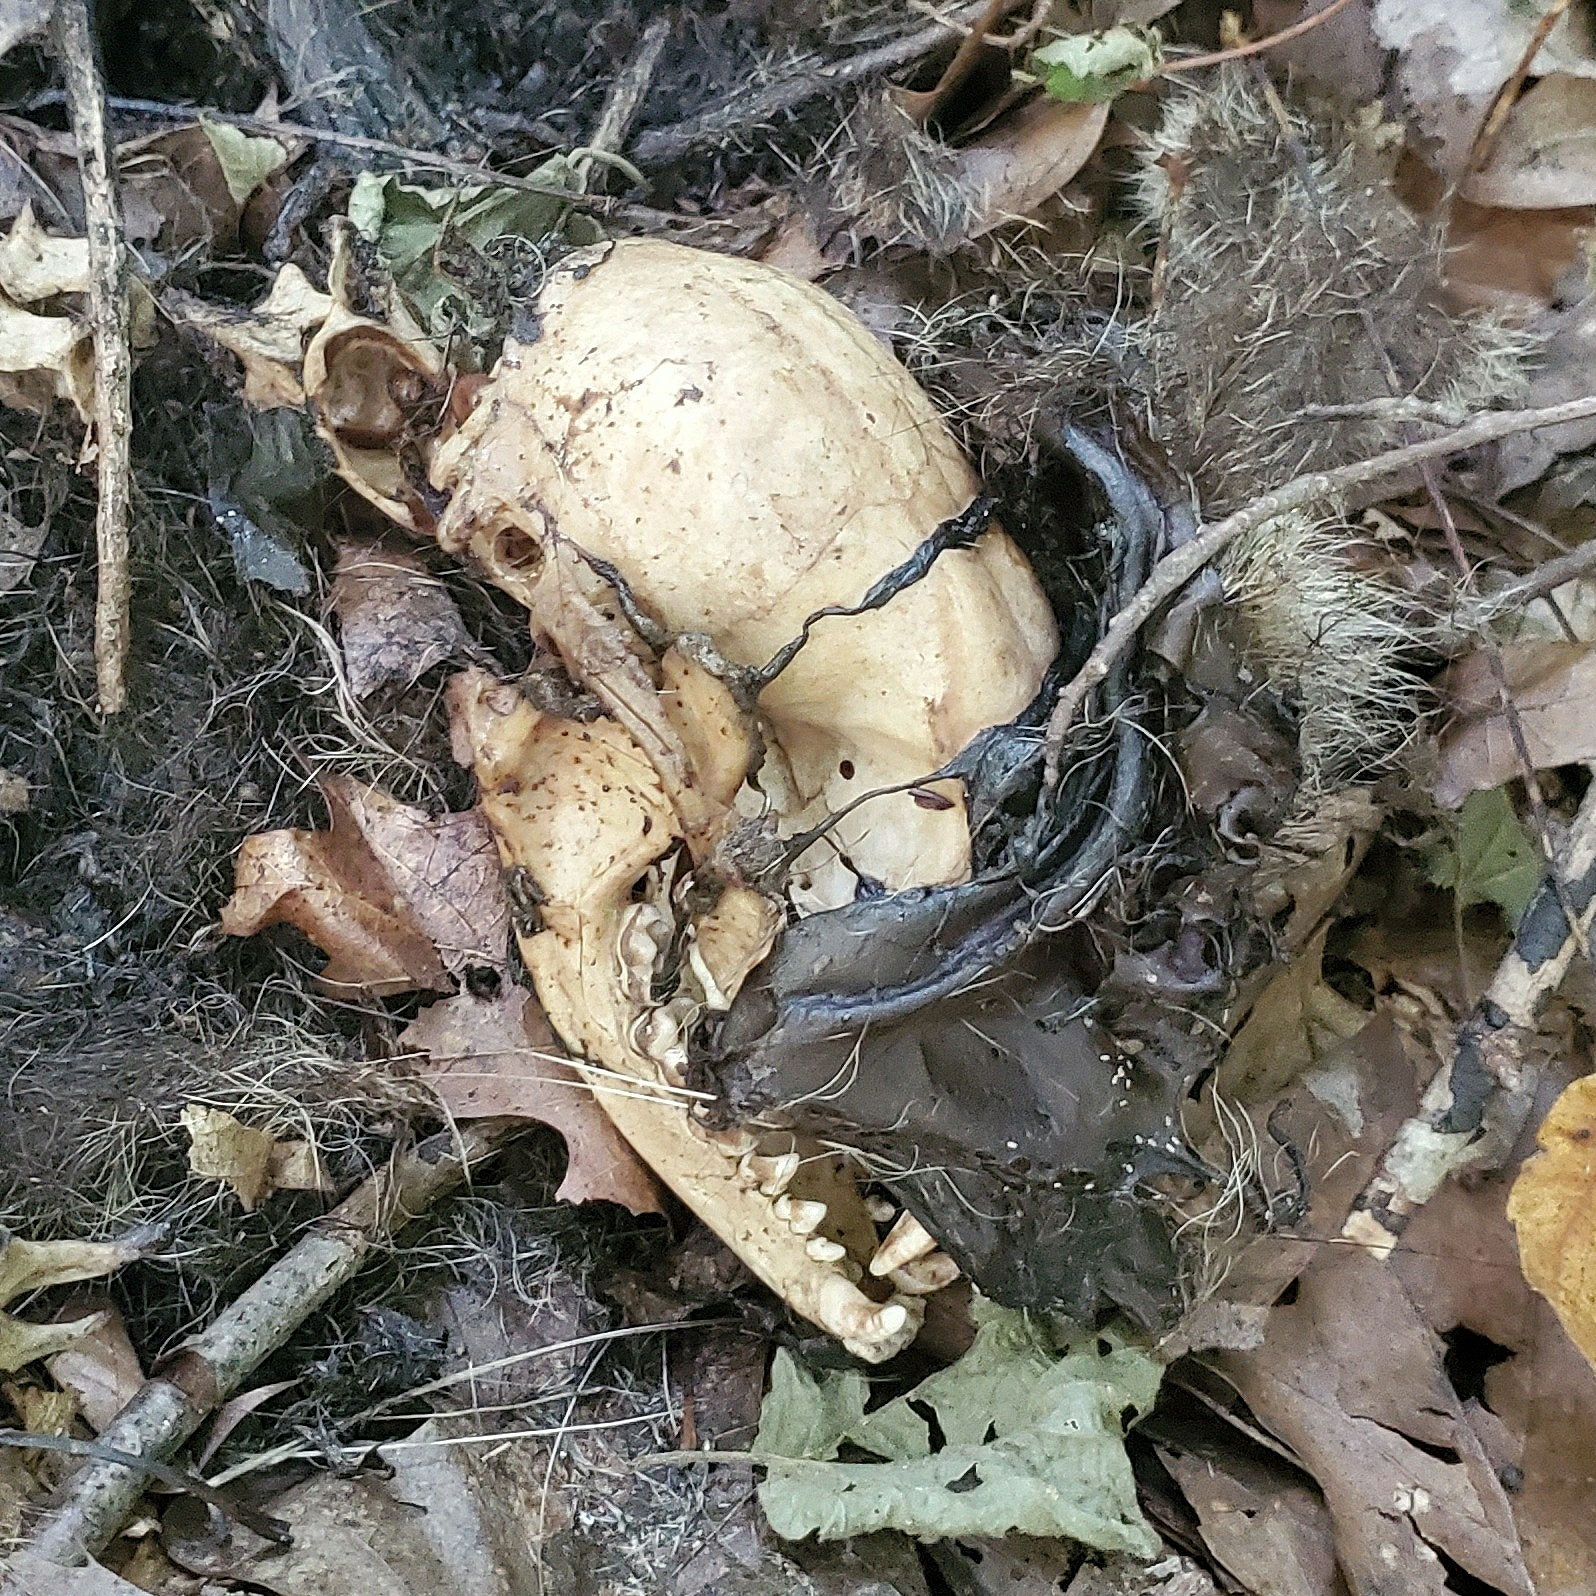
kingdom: Animalia
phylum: Chordata
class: Mammalia
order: Carnivora
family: Procyonidae
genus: Procyon
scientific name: Procyon lotor
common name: Raccoon
